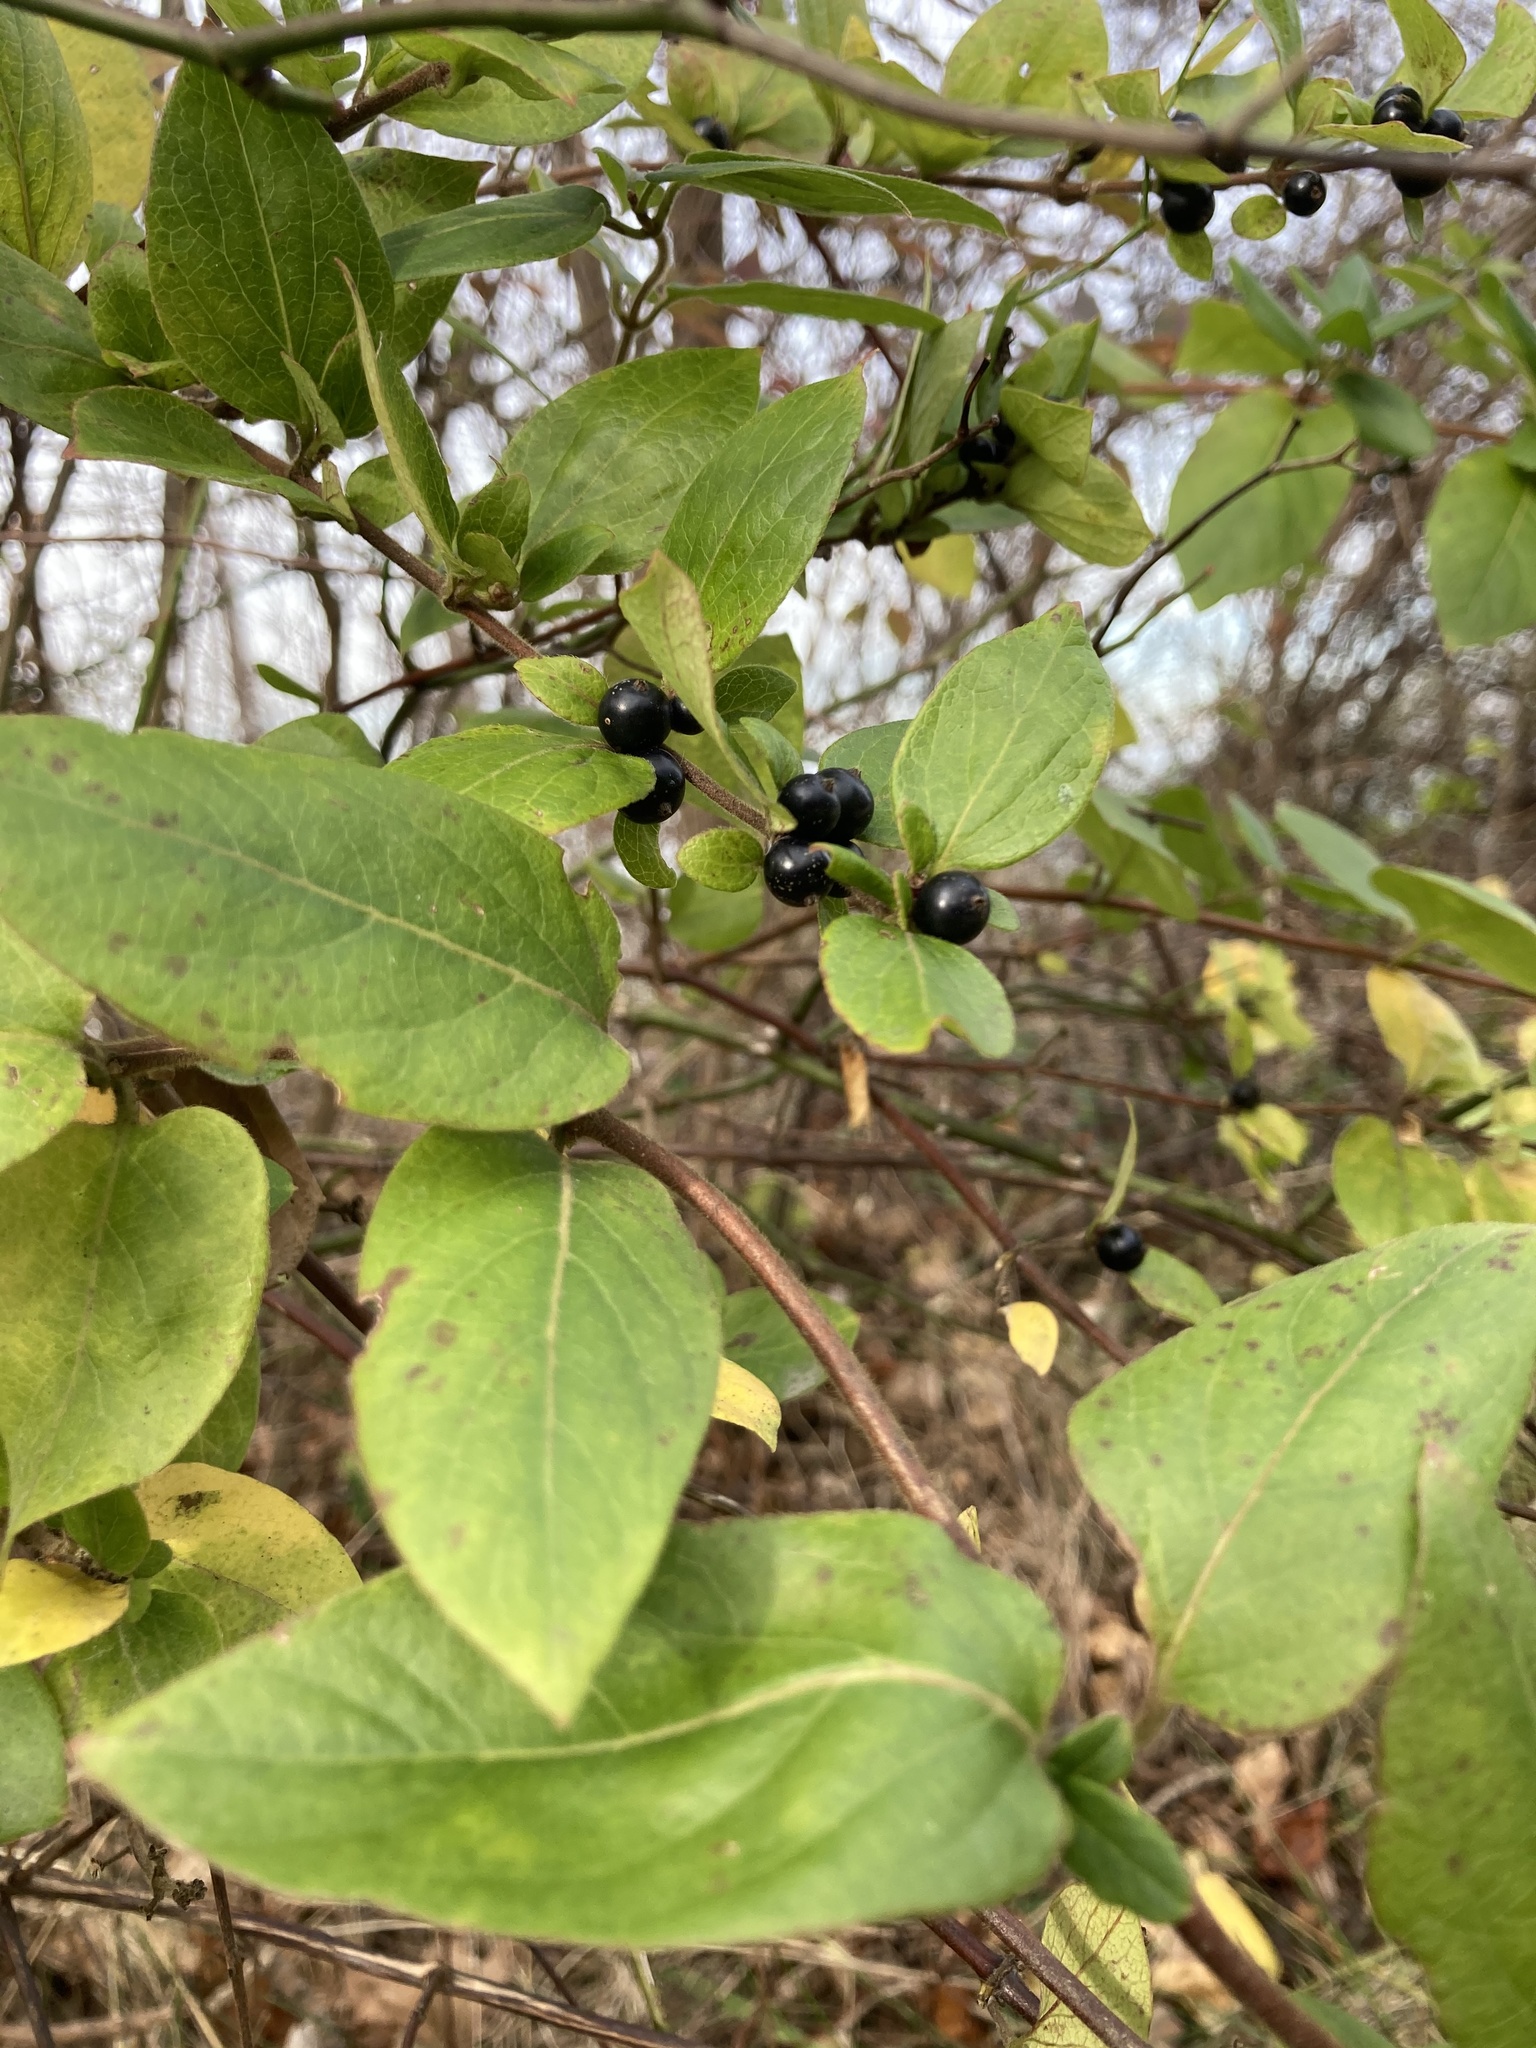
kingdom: Plantae
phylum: Tracheophyta
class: Magnoliopsida
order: Dipsacales
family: Caprifoliaceae
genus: Lonicera
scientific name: Lonicera japonica
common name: Japanese honeysuckle
